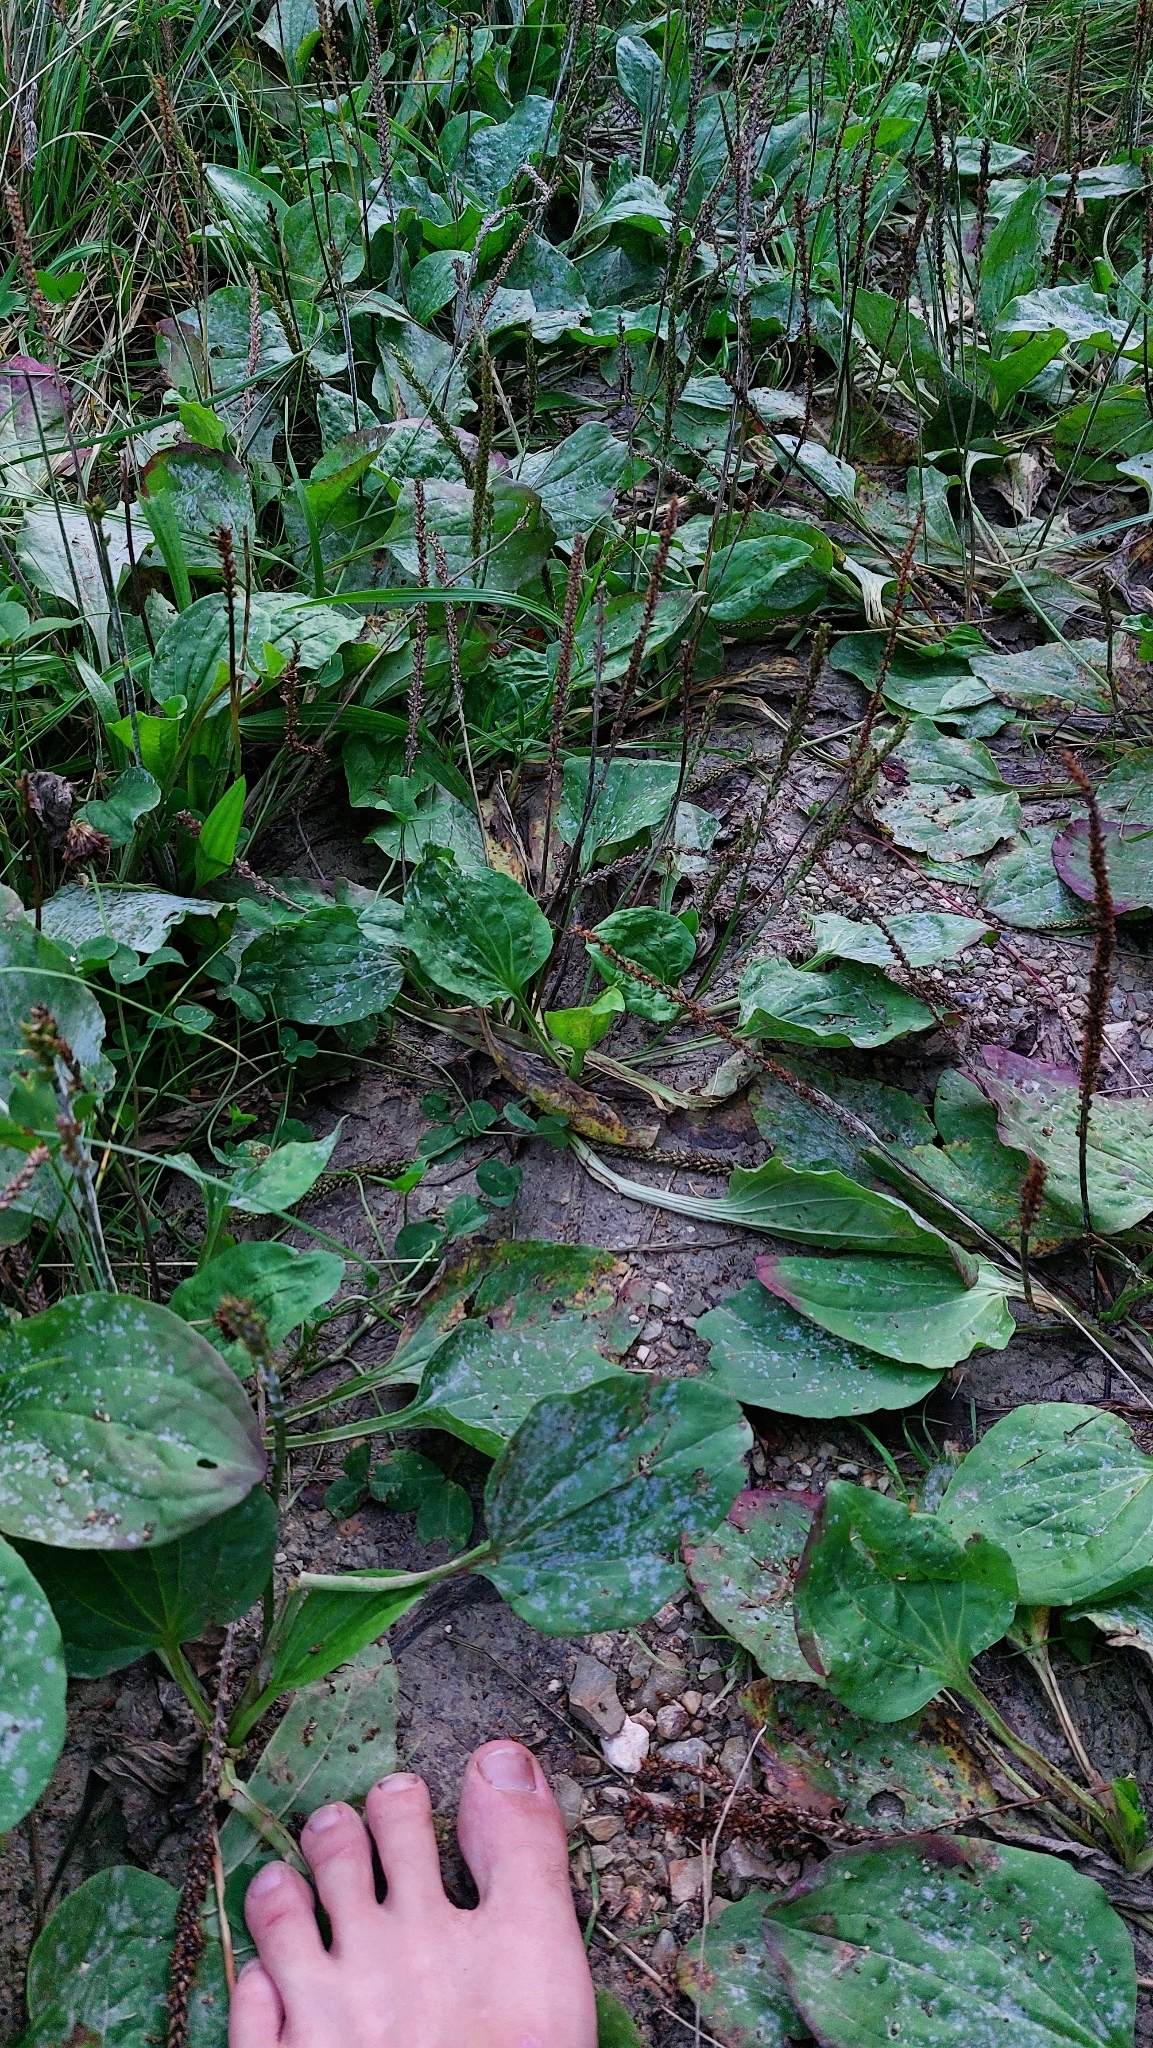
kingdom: Plantae
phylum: Tracheophyta
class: Magnoliopsida
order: Lamiales
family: Plantaginaceae
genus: Plantago
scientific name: Plantago major
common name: Common plantain
